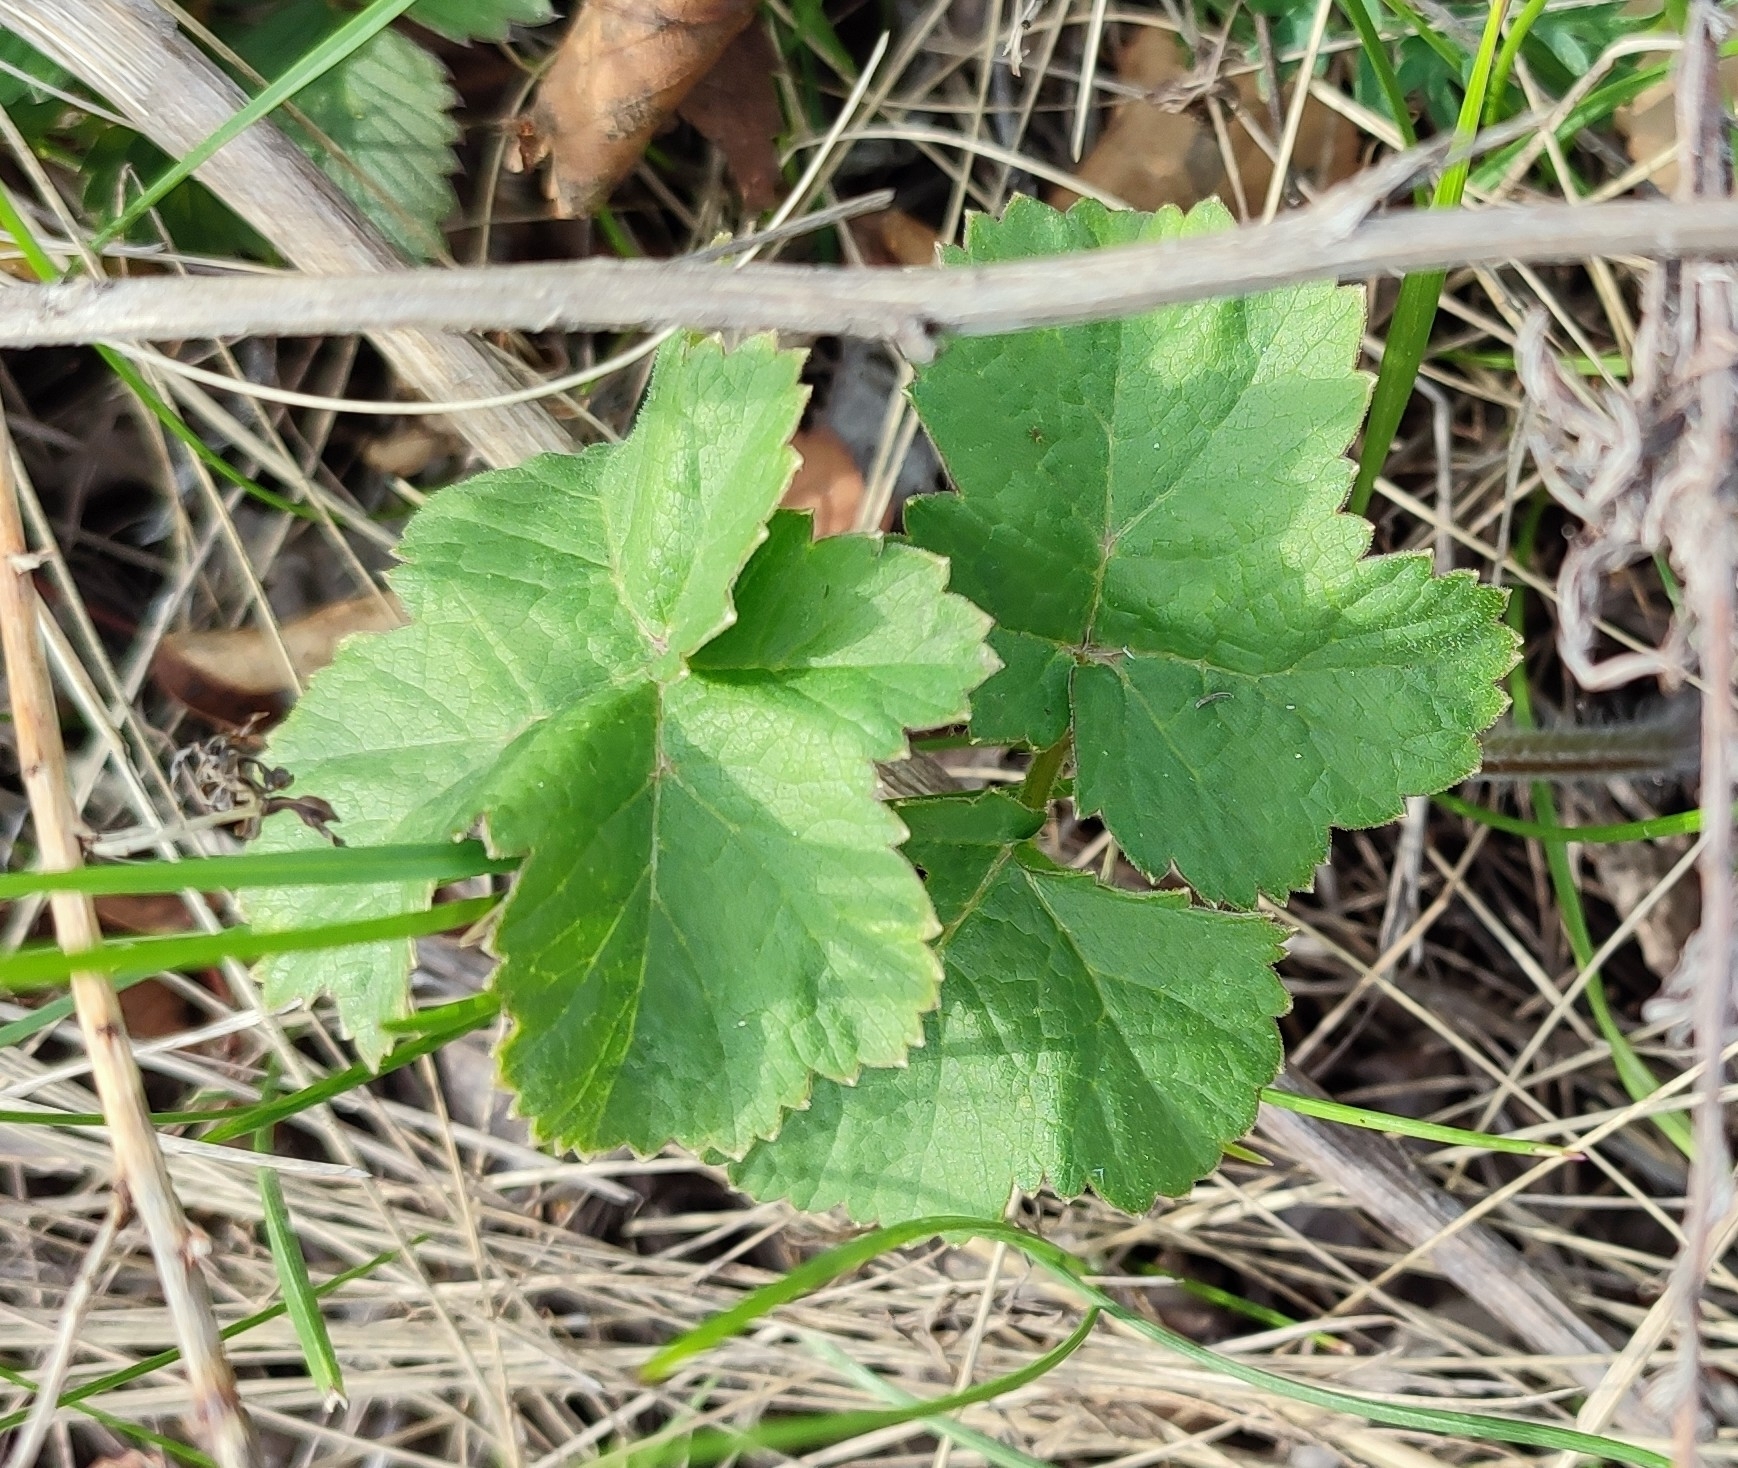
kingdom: Plantae
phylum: Tracheophyta
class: Magnoliopsida
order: Apiales
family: Apiaceae
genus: Heracleum
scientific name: Heracleum sphondylium
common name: Hogweed
